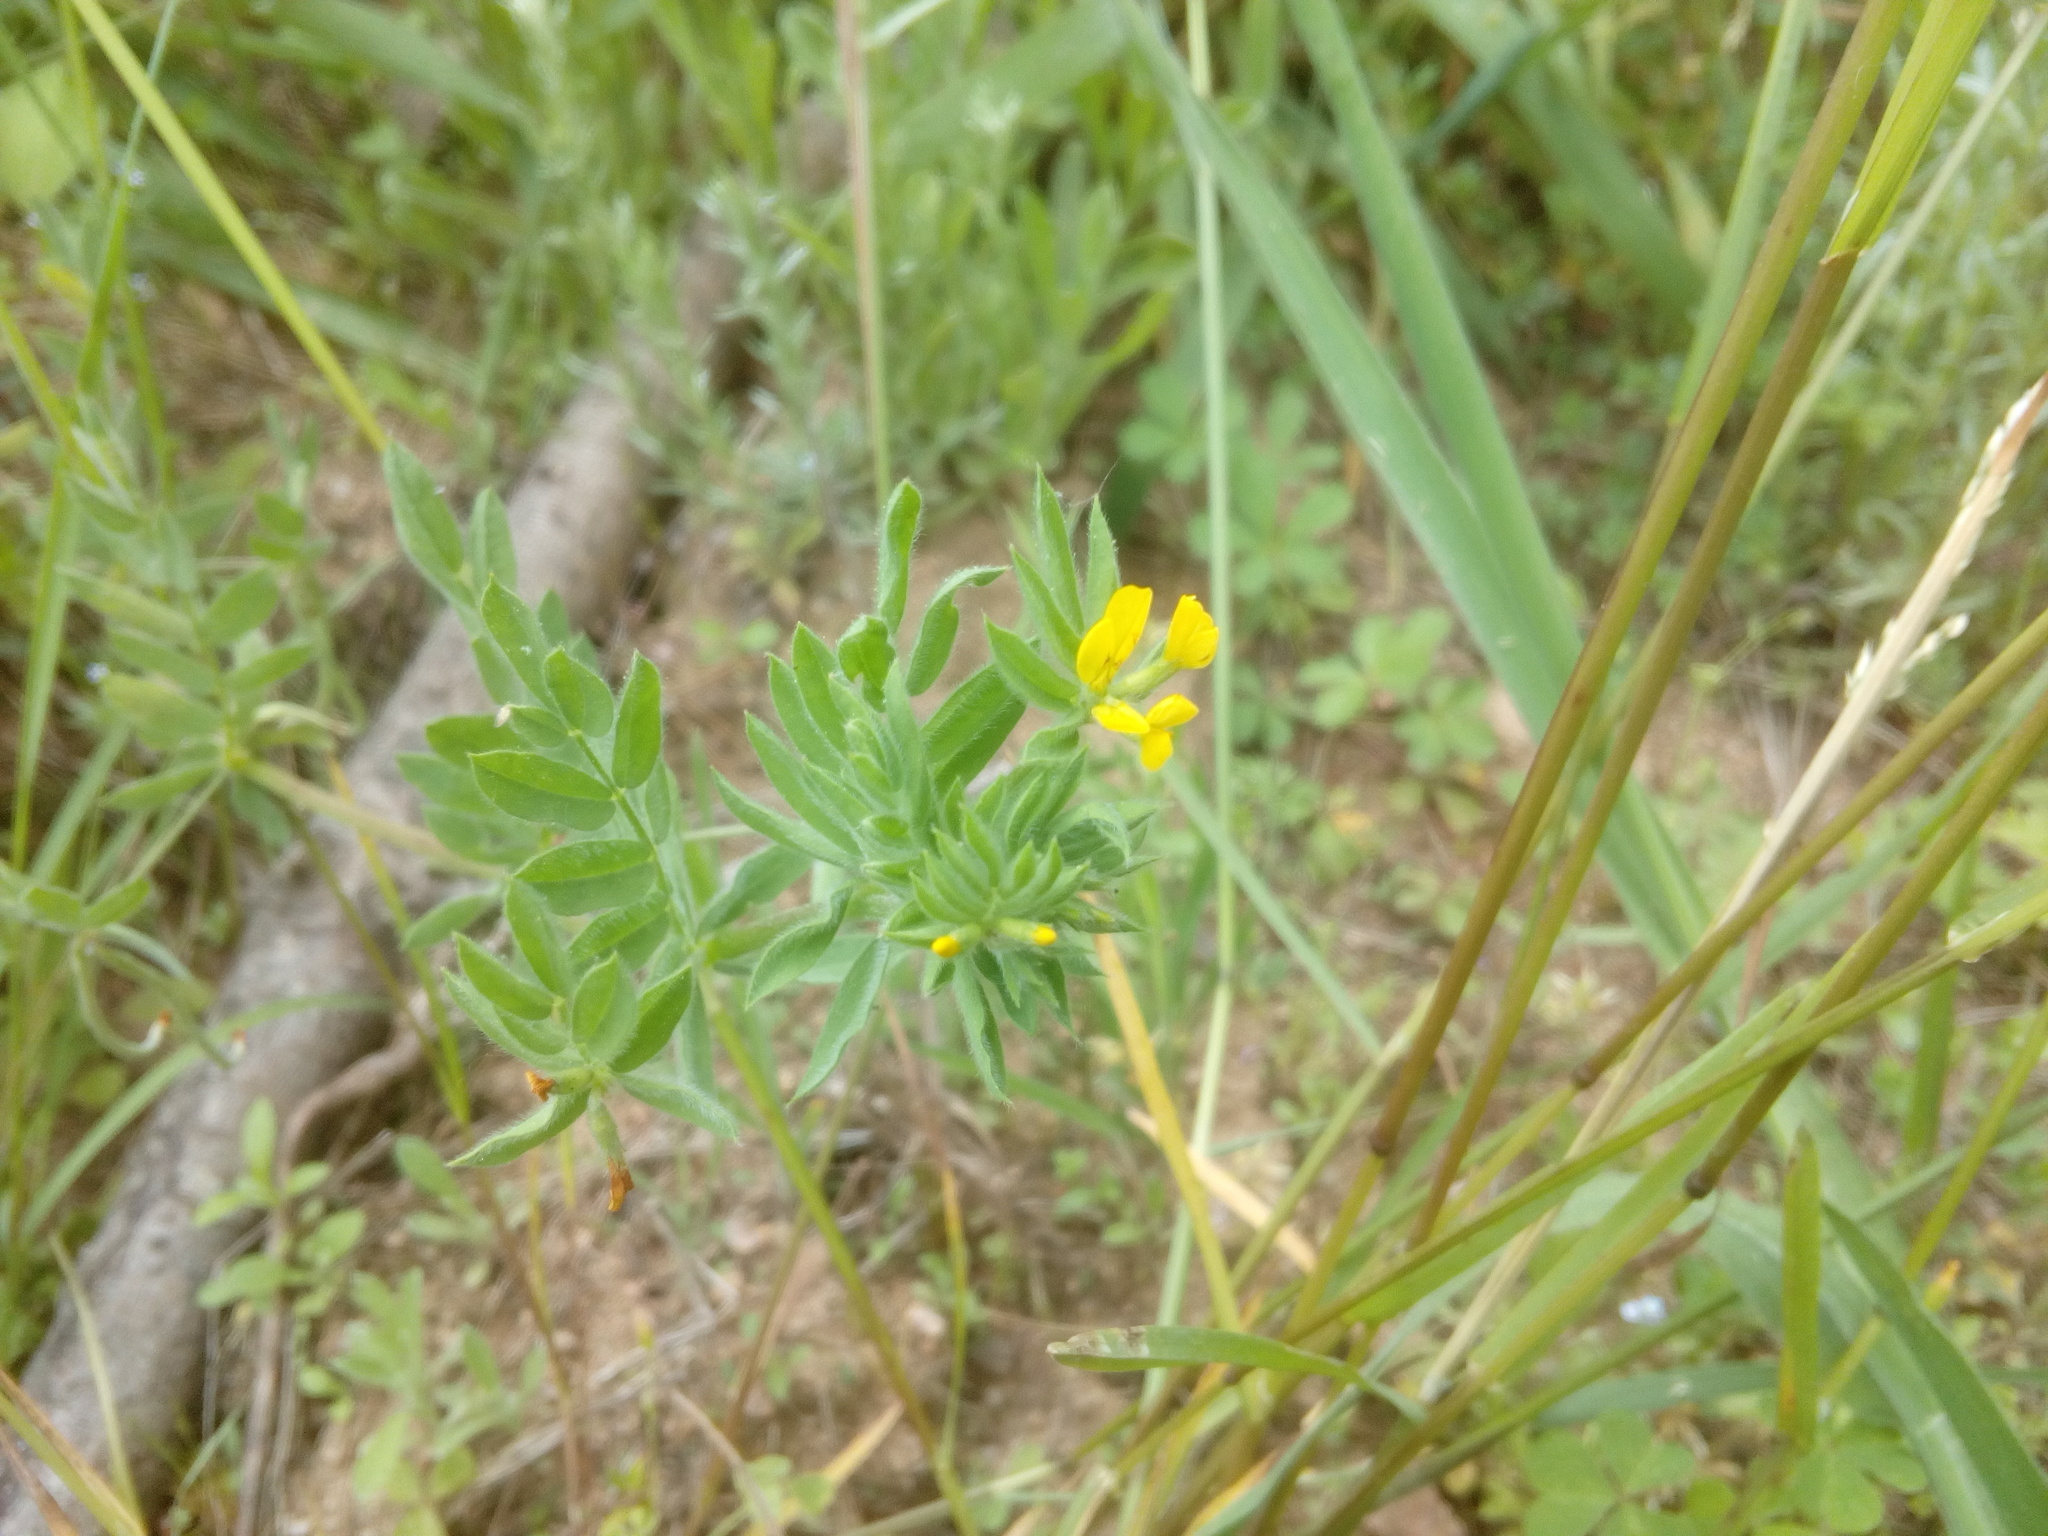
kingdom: Plantae
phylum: Tracheophyta
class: Magnoliopsida
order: Fabales
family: Fabaceae
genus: Ornithopus
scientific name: Ornithopus compressus
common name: Yellow serradella
